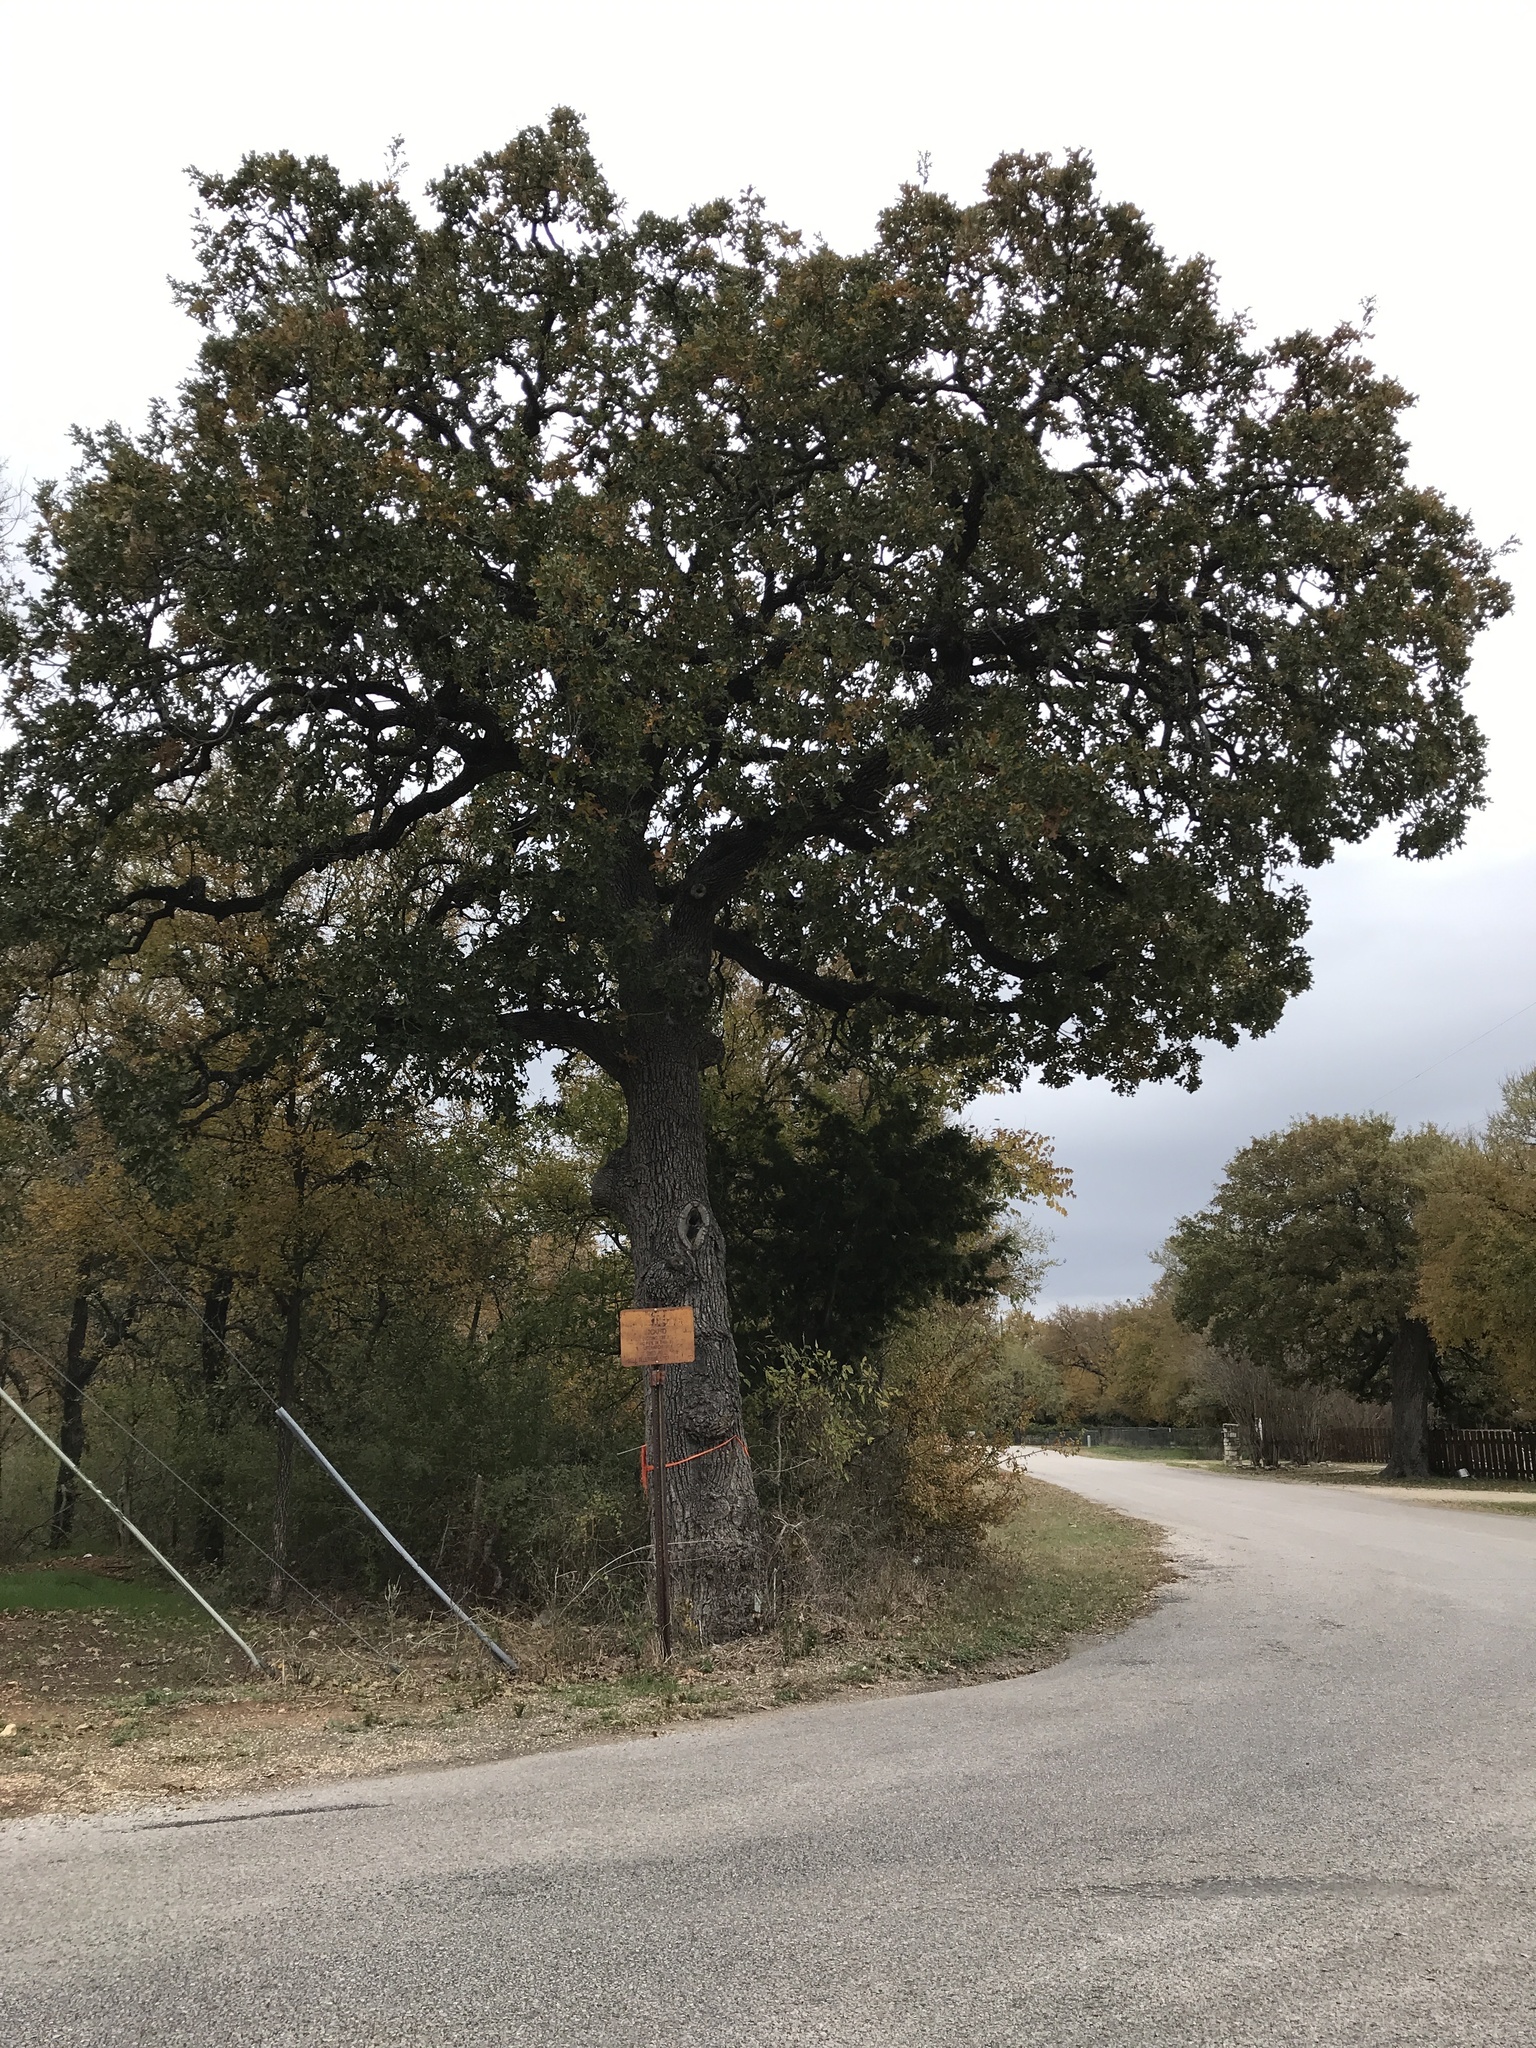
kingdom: Plantae
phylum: Tracheophyta
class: Magnoliopsida
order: Fagales
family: Fagaceae
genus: Quercus
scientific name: Quercus stellata
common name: Post oak
